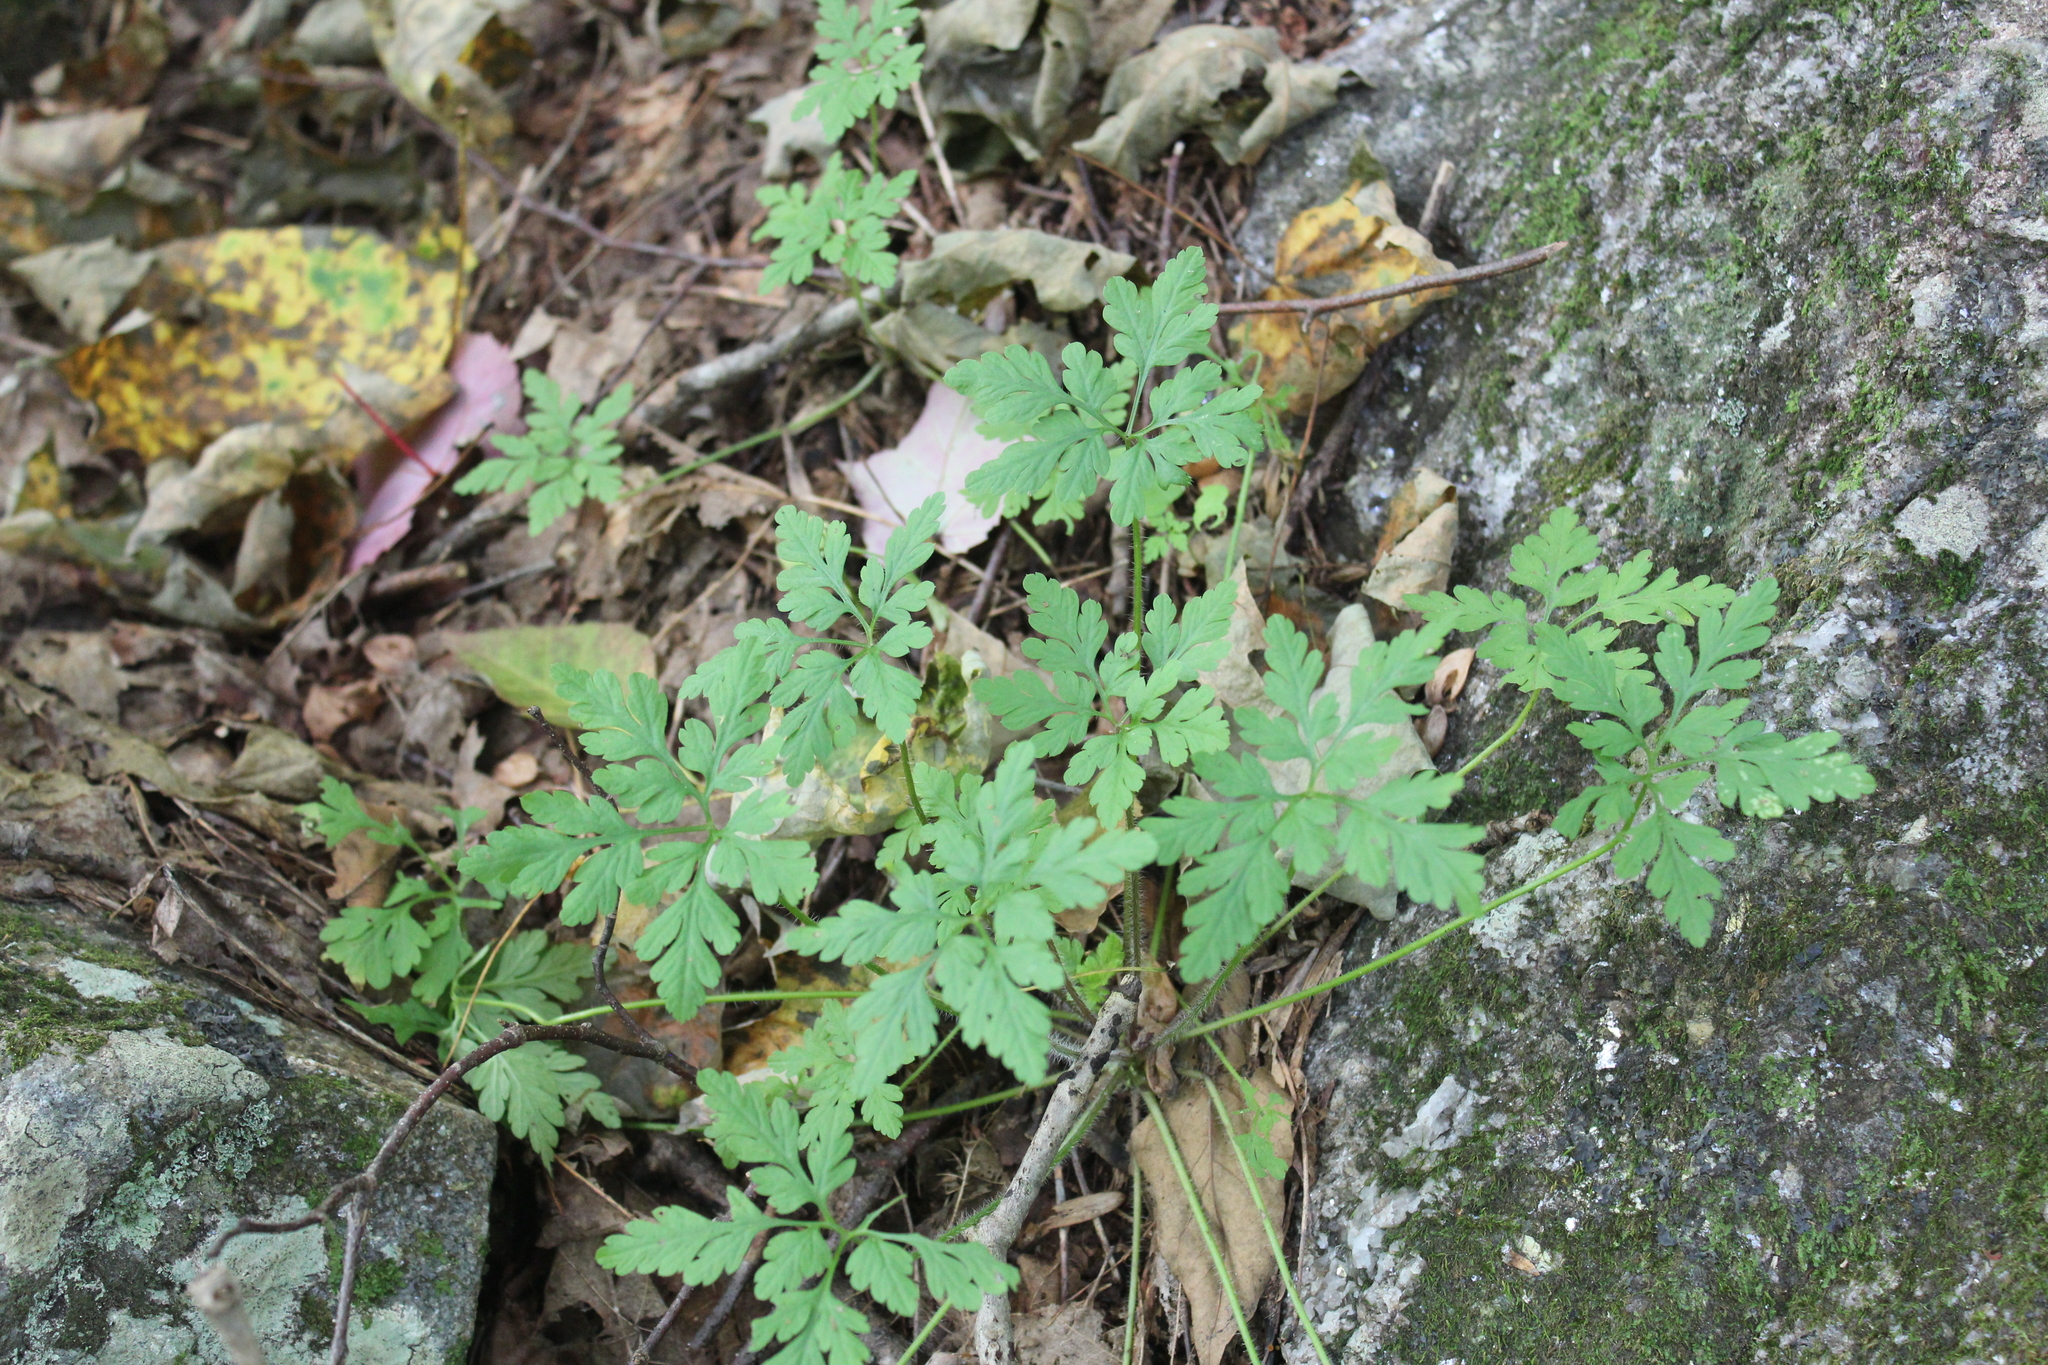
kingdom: Plantae
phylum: Tracheophyta
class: Magnoliopsida
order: Geraniales
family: Geraniaceae
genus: Geranium
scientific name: Geranium robertianum
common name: Herb-robert
